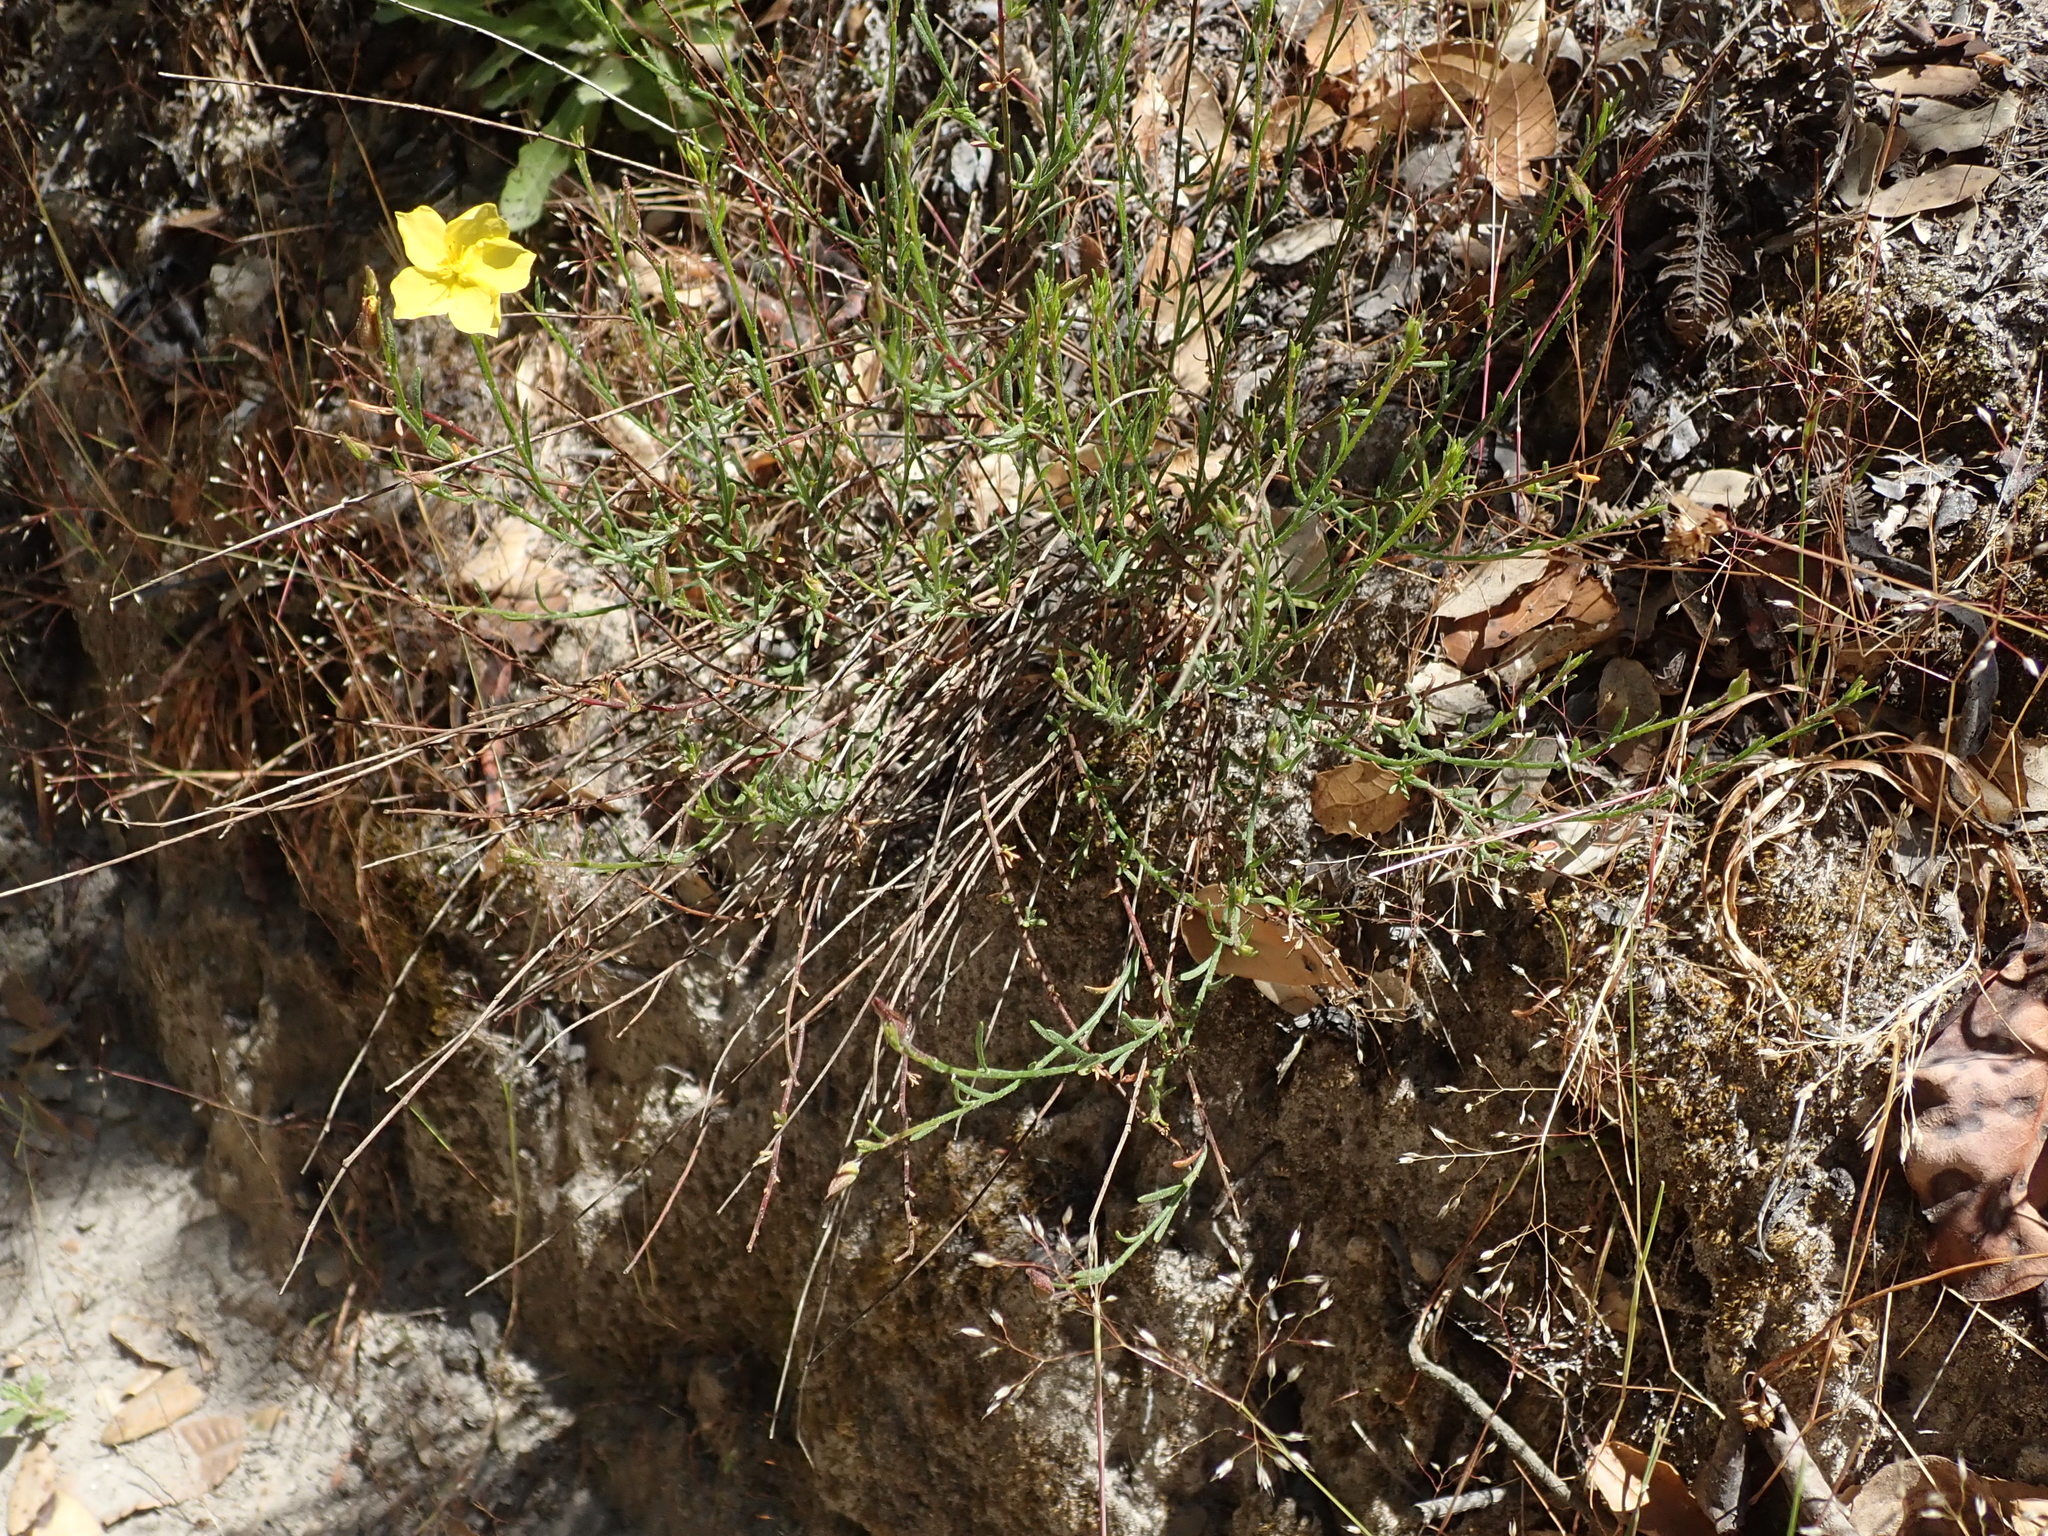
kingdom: Plantae
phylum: Tracheophyta
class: Magnoliopsida
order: Malvales
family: Cistaceae
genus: Crocanthemum
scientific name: Crocanthemum scoparium
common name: Broom-rose
